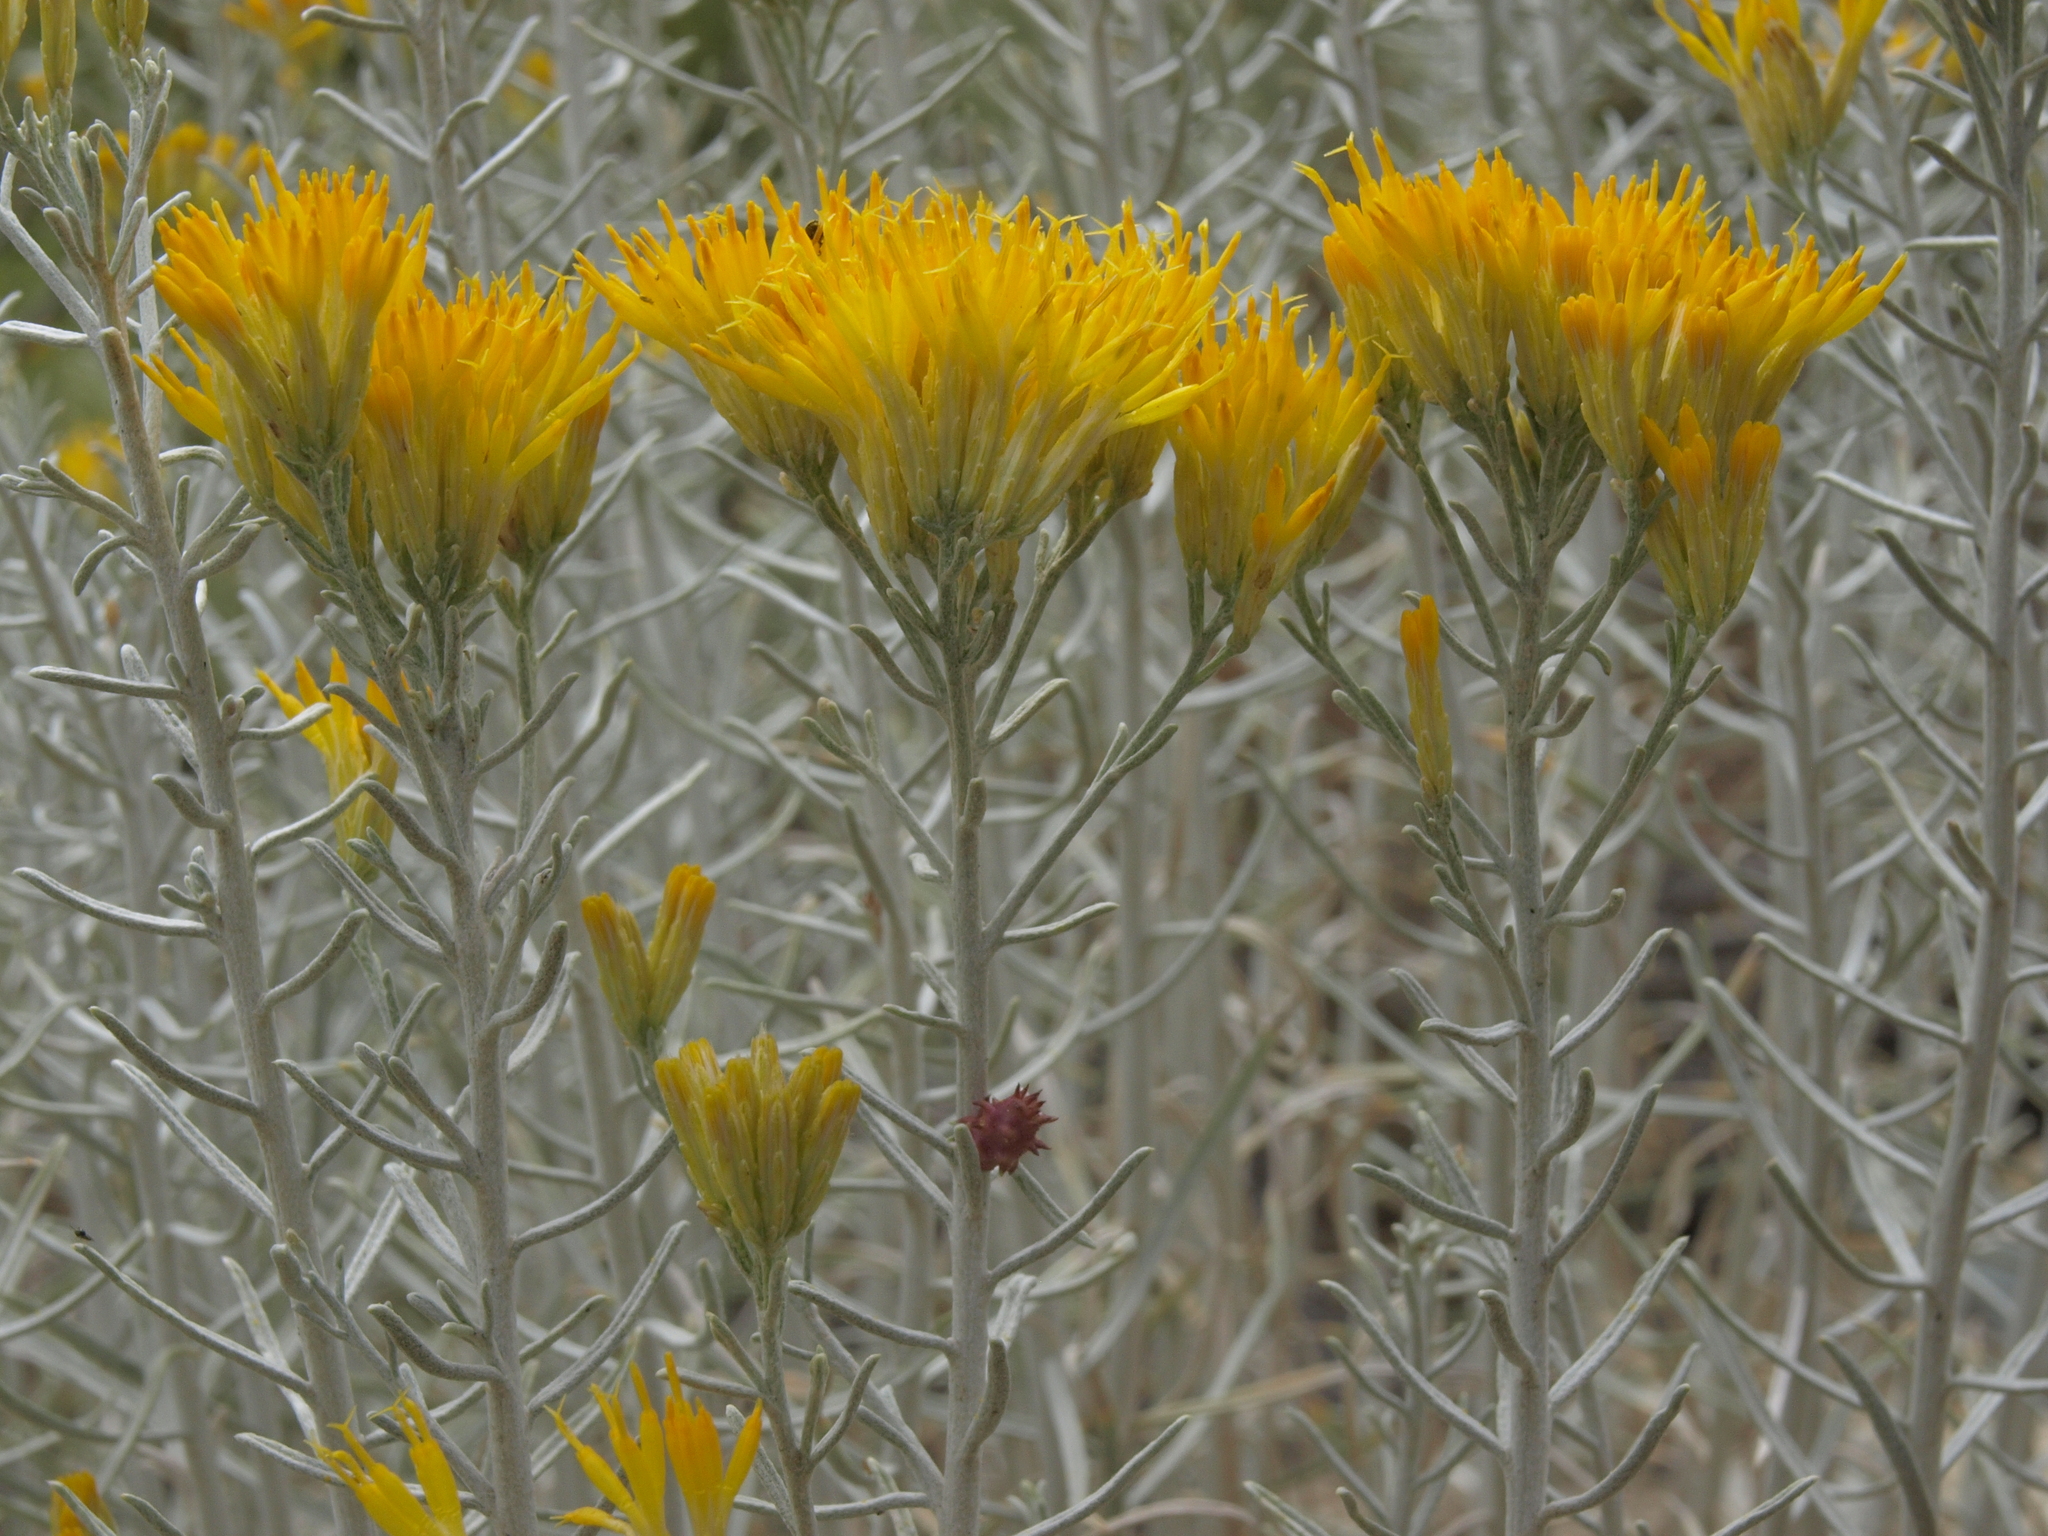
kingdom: Plantae
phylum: Tracheophyta
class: Magnoliopsida
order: Asterales
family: Asteraceae
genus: Ericameria
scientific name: Ericameria nauseosa
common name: Rubber rabbitbrush
